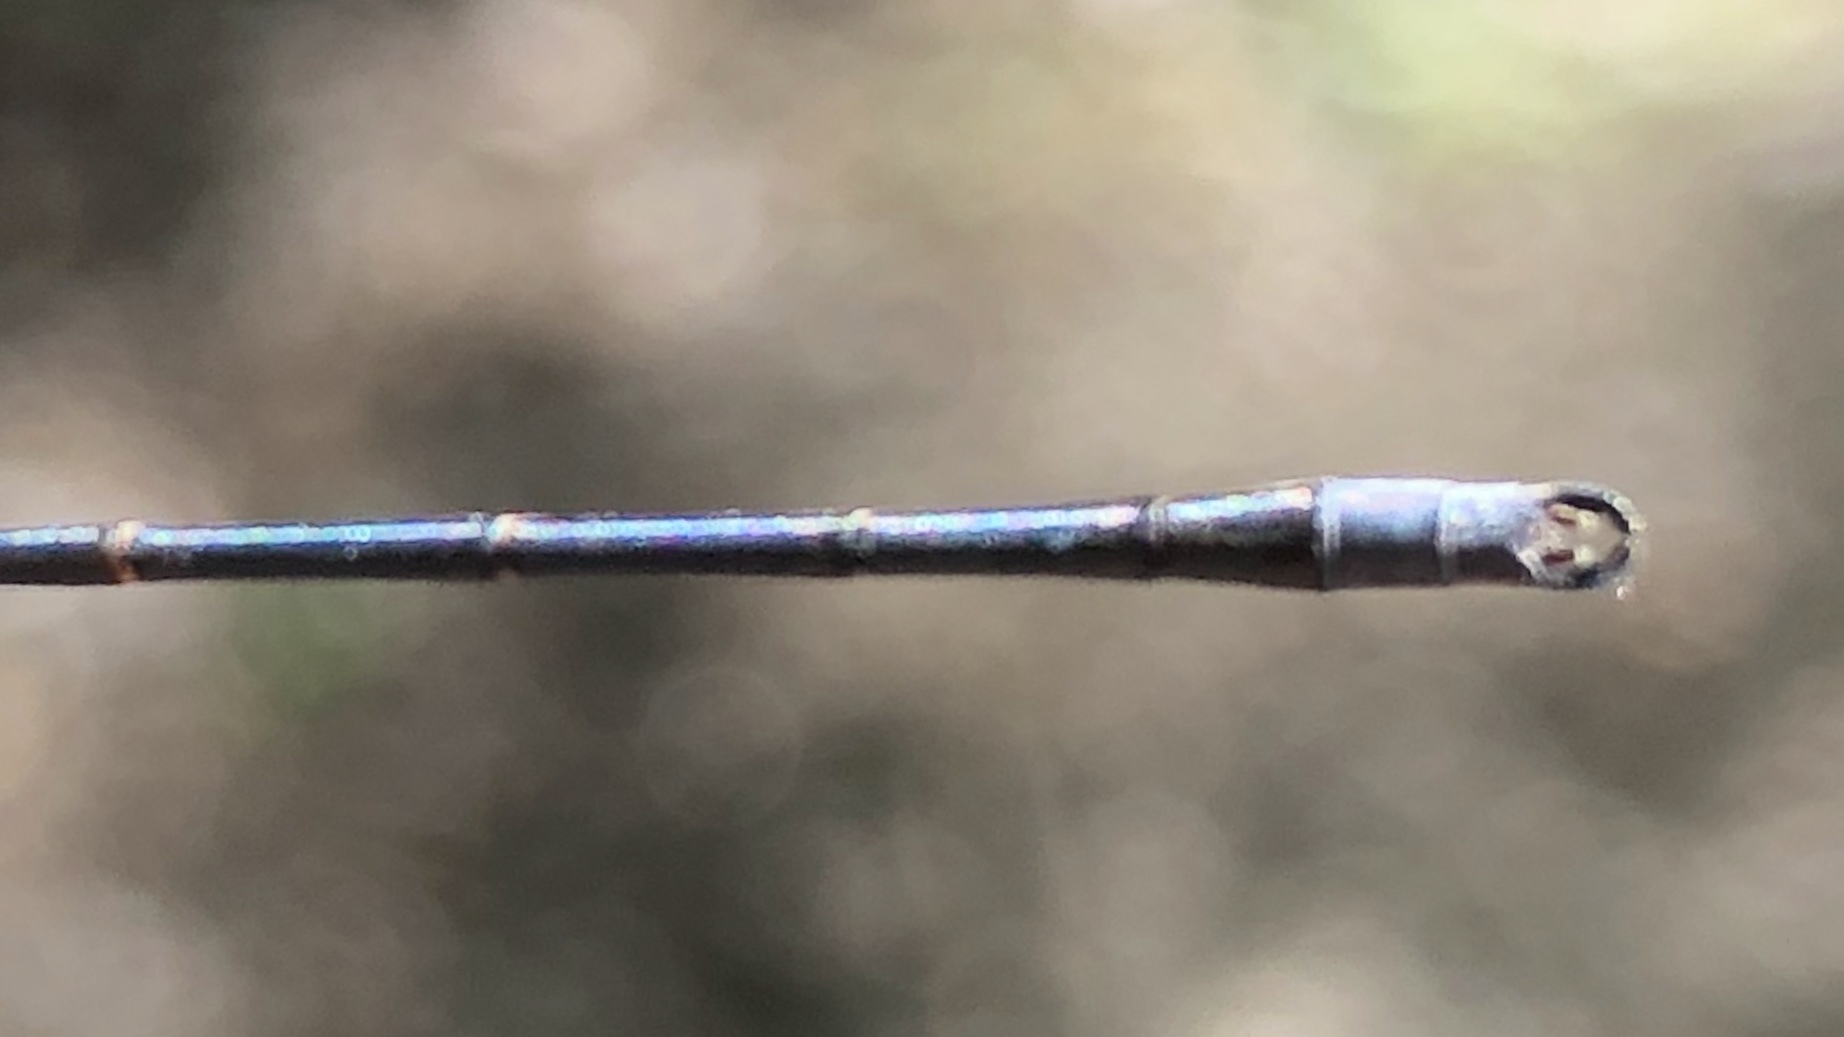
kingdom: Animalia
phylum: Arthropoda
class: Insecta
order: Odonata
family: Lestidae
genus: Lestes
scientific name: Lestes congener
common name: Spotted spreadwing
